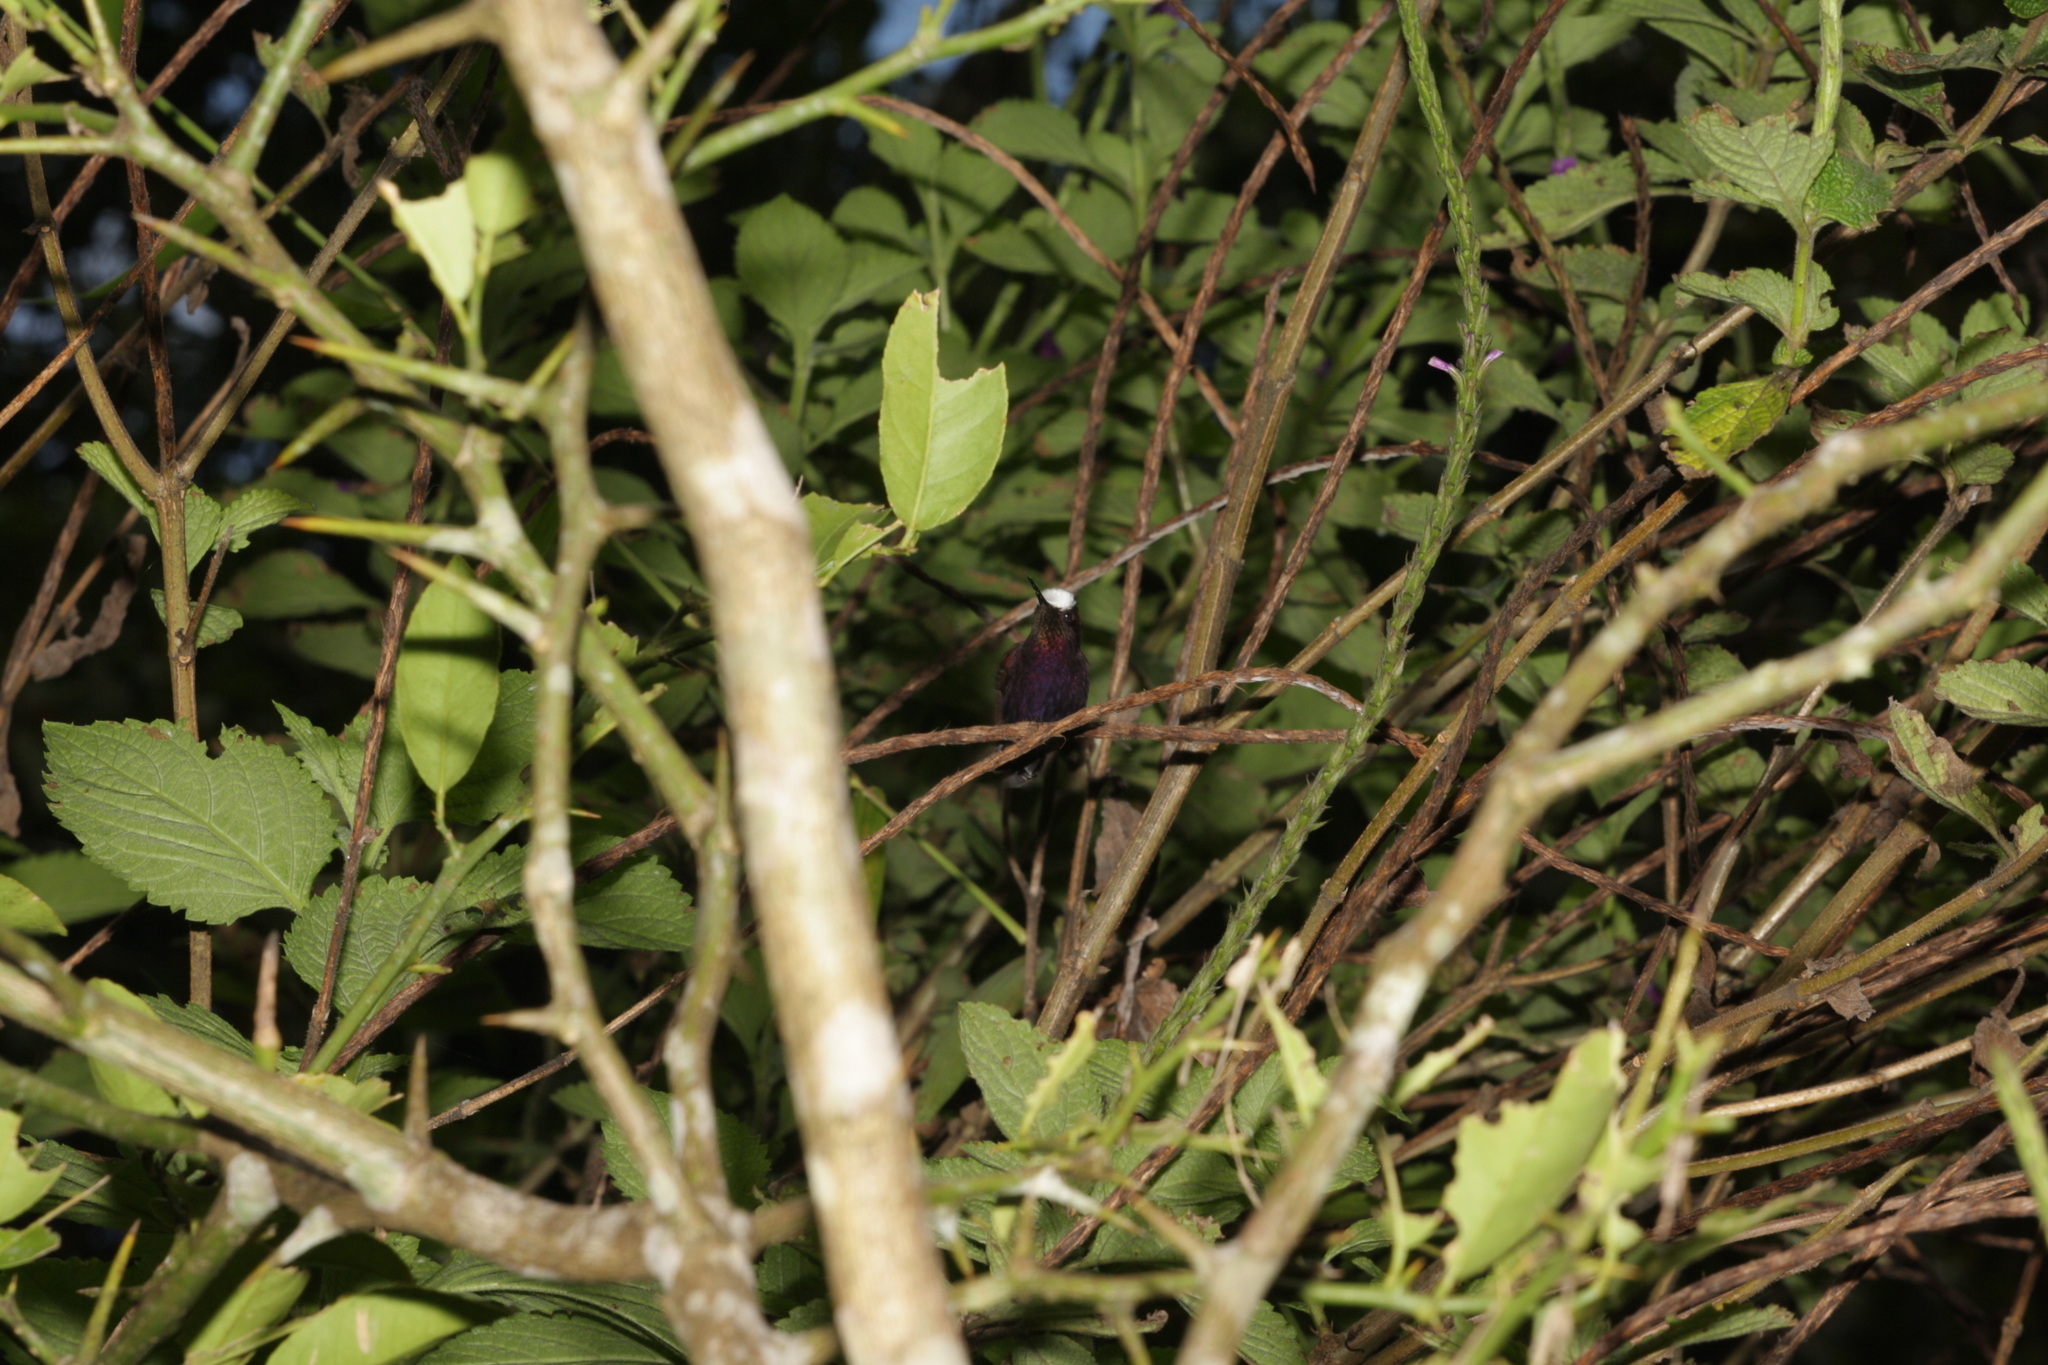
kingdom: Animalia
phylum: Chordata
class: Aves
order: Apodiformes
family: Trochilidae
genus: Microchera
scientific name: Microchera albocoronata
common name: Snowcap
